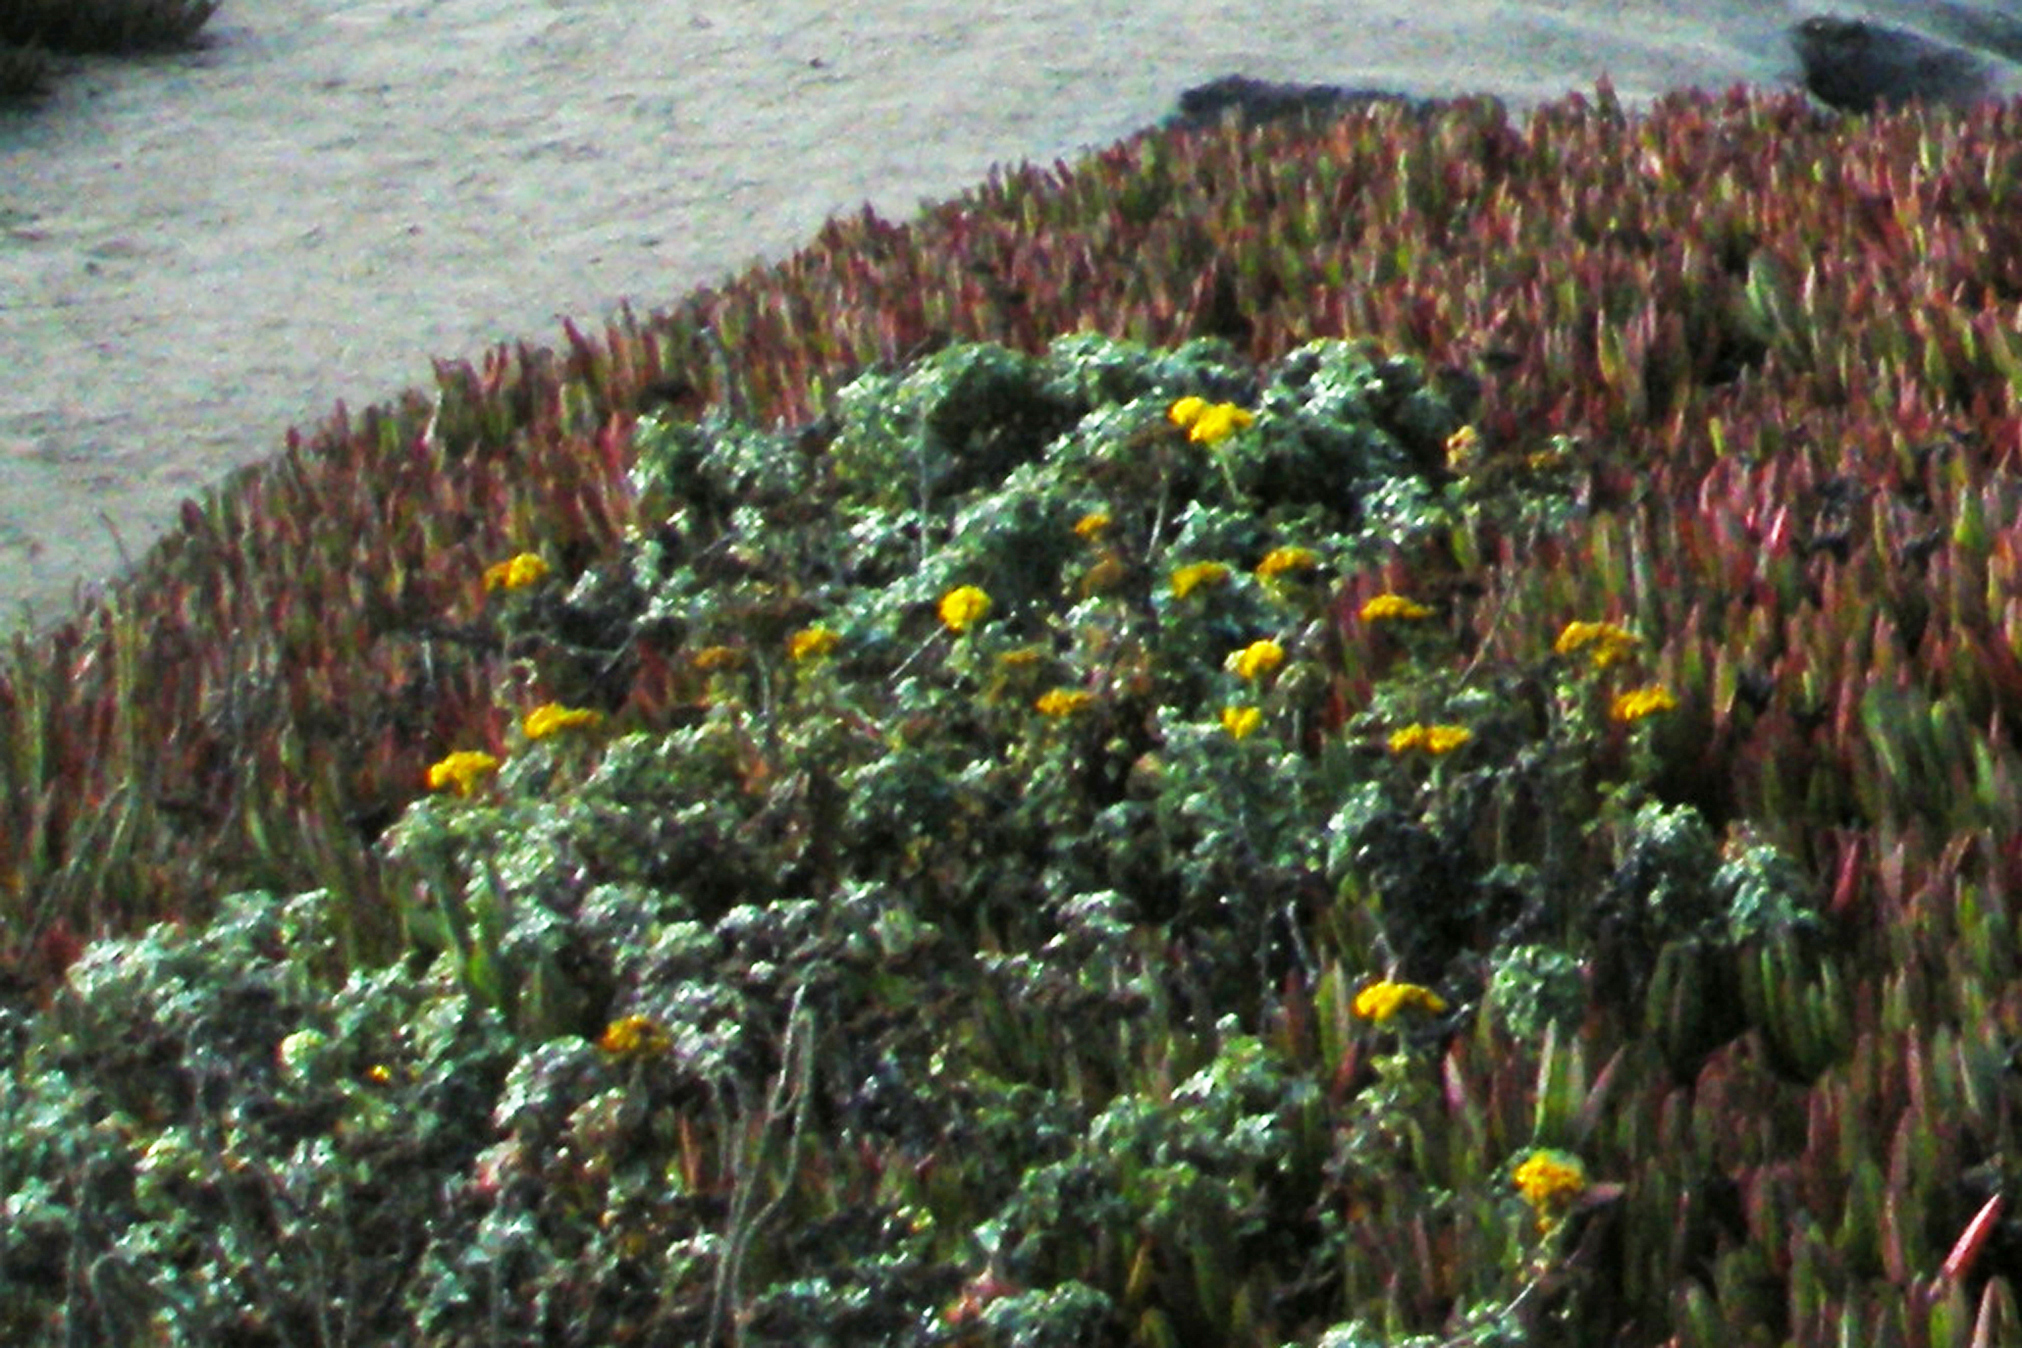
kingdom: Plantae
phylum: Tracheophyta
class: Magnoliopsida
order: Asterales
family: Asteraceae
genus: Eriophyllum
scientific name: Eriophyllum staechadifolium
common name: Lizardtail
